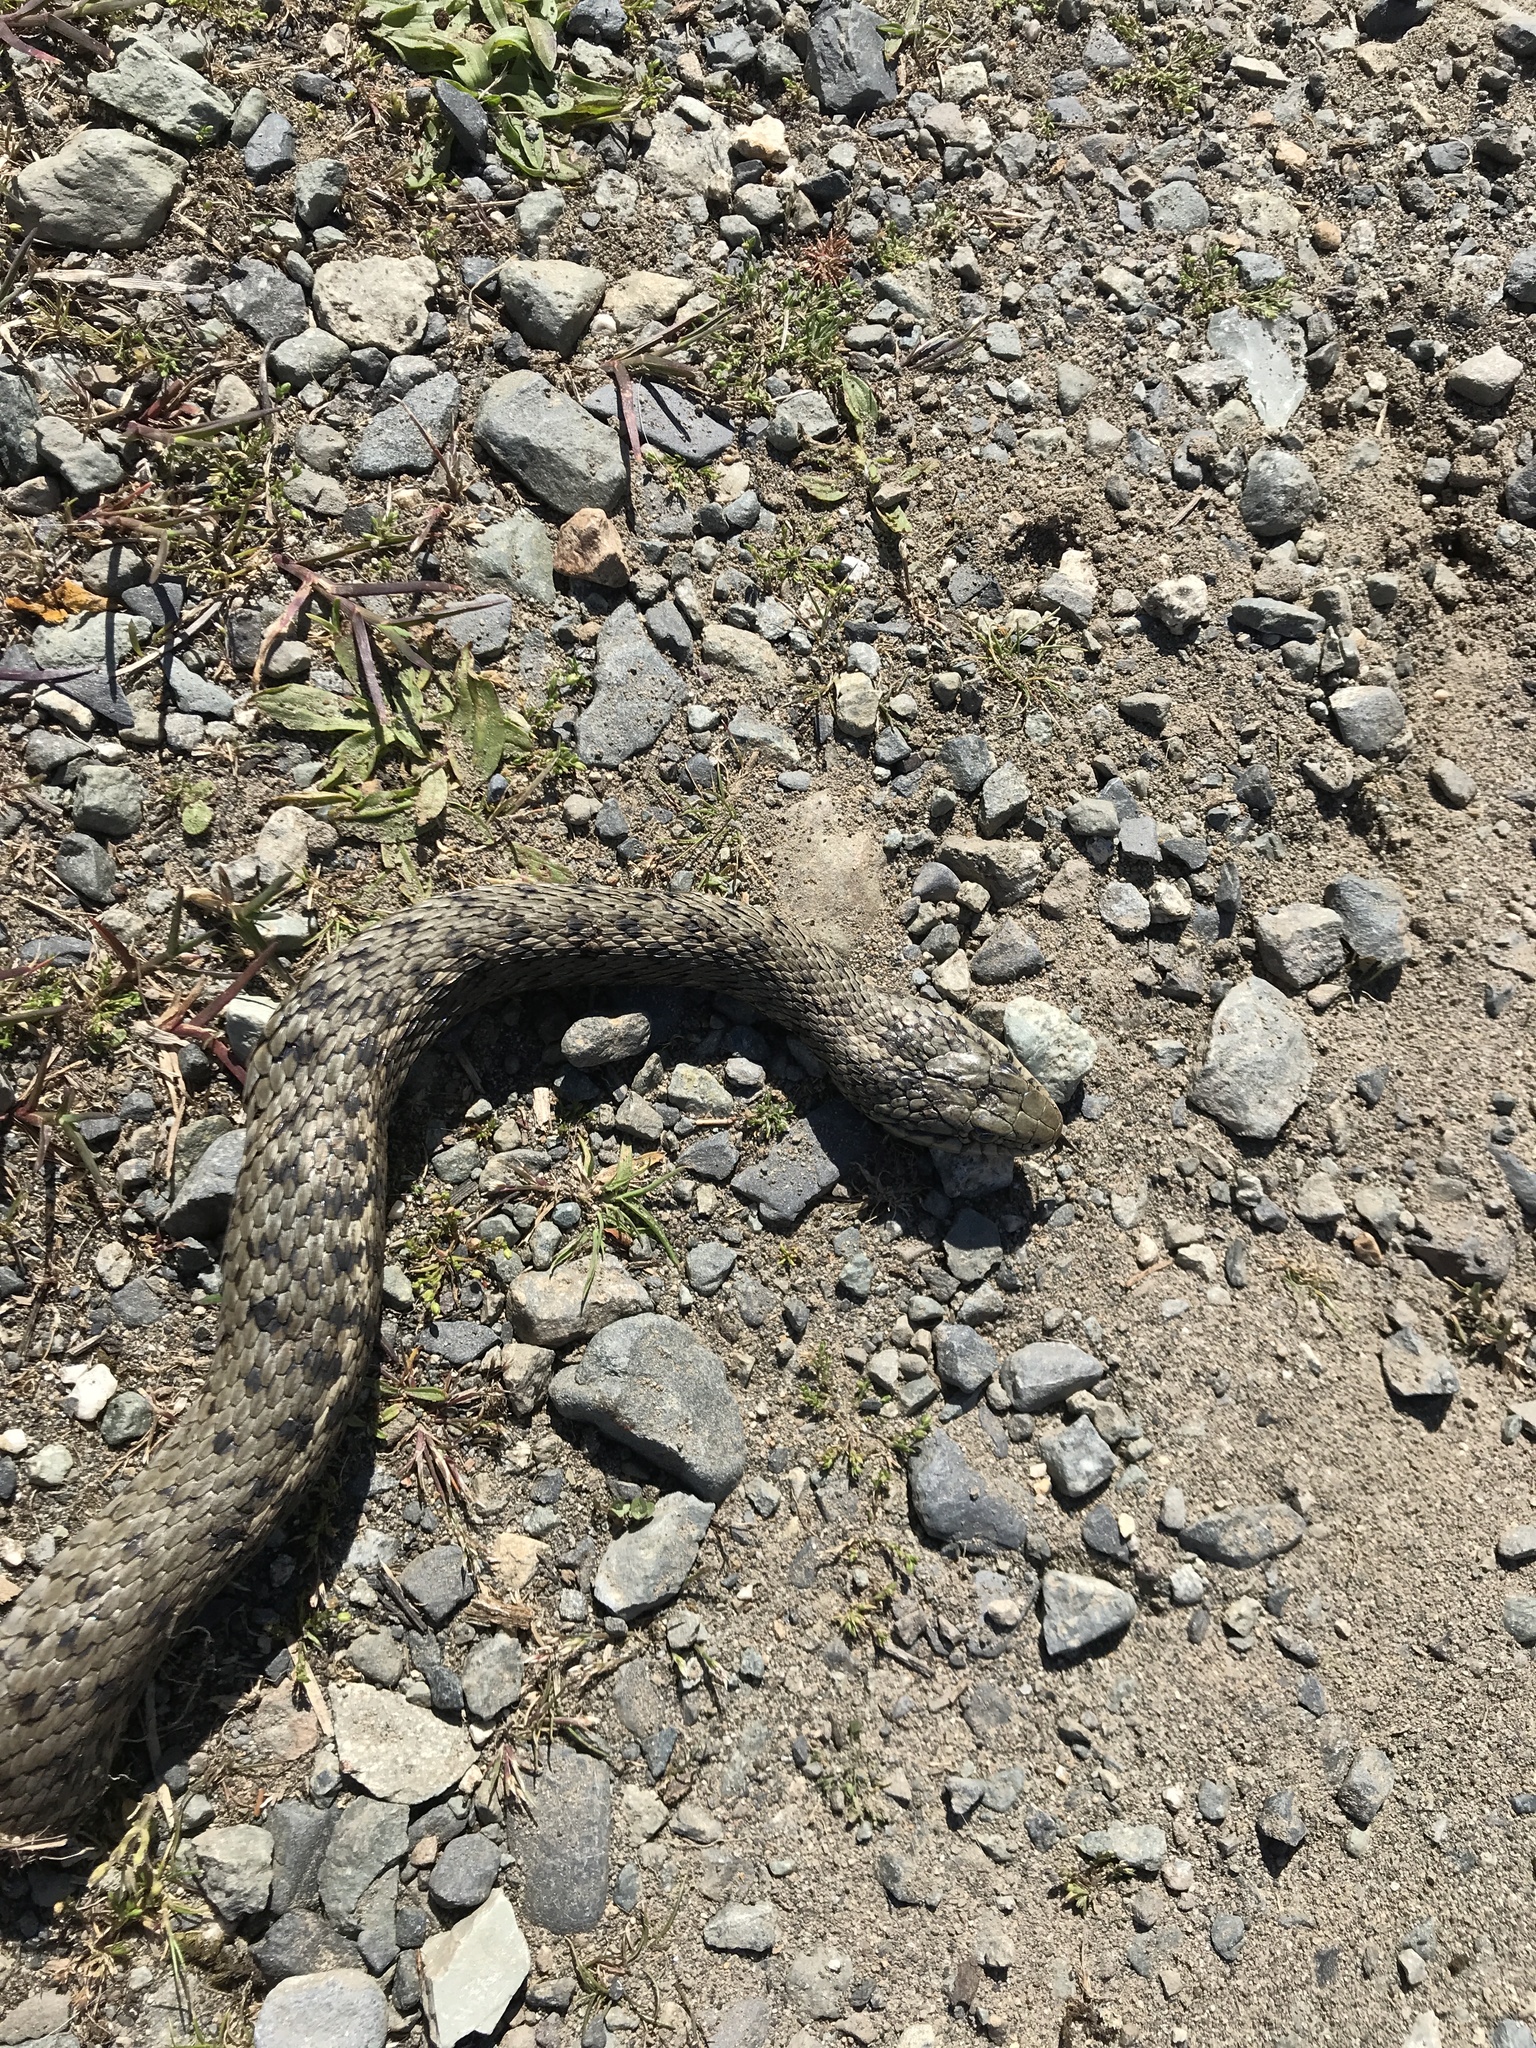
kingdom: Animalia
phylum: Chordata
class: Squamata
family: Colubridae
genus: Thamnophis
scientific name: Thamnophis elegans
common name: Western terrestrial garter snake
